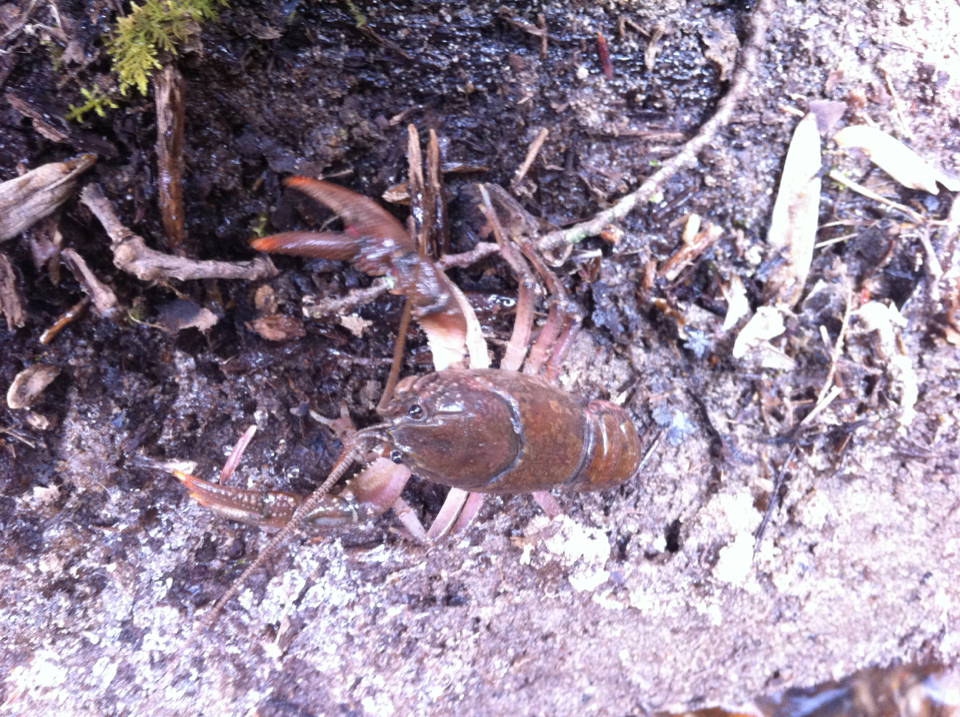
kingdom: Animalia
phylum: Arthropoda
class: Malacostraca
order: Decapoda
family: Cambaridae
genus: Cambarus
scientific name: Cambarus bartonii
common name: Appalachian brook crayfish
